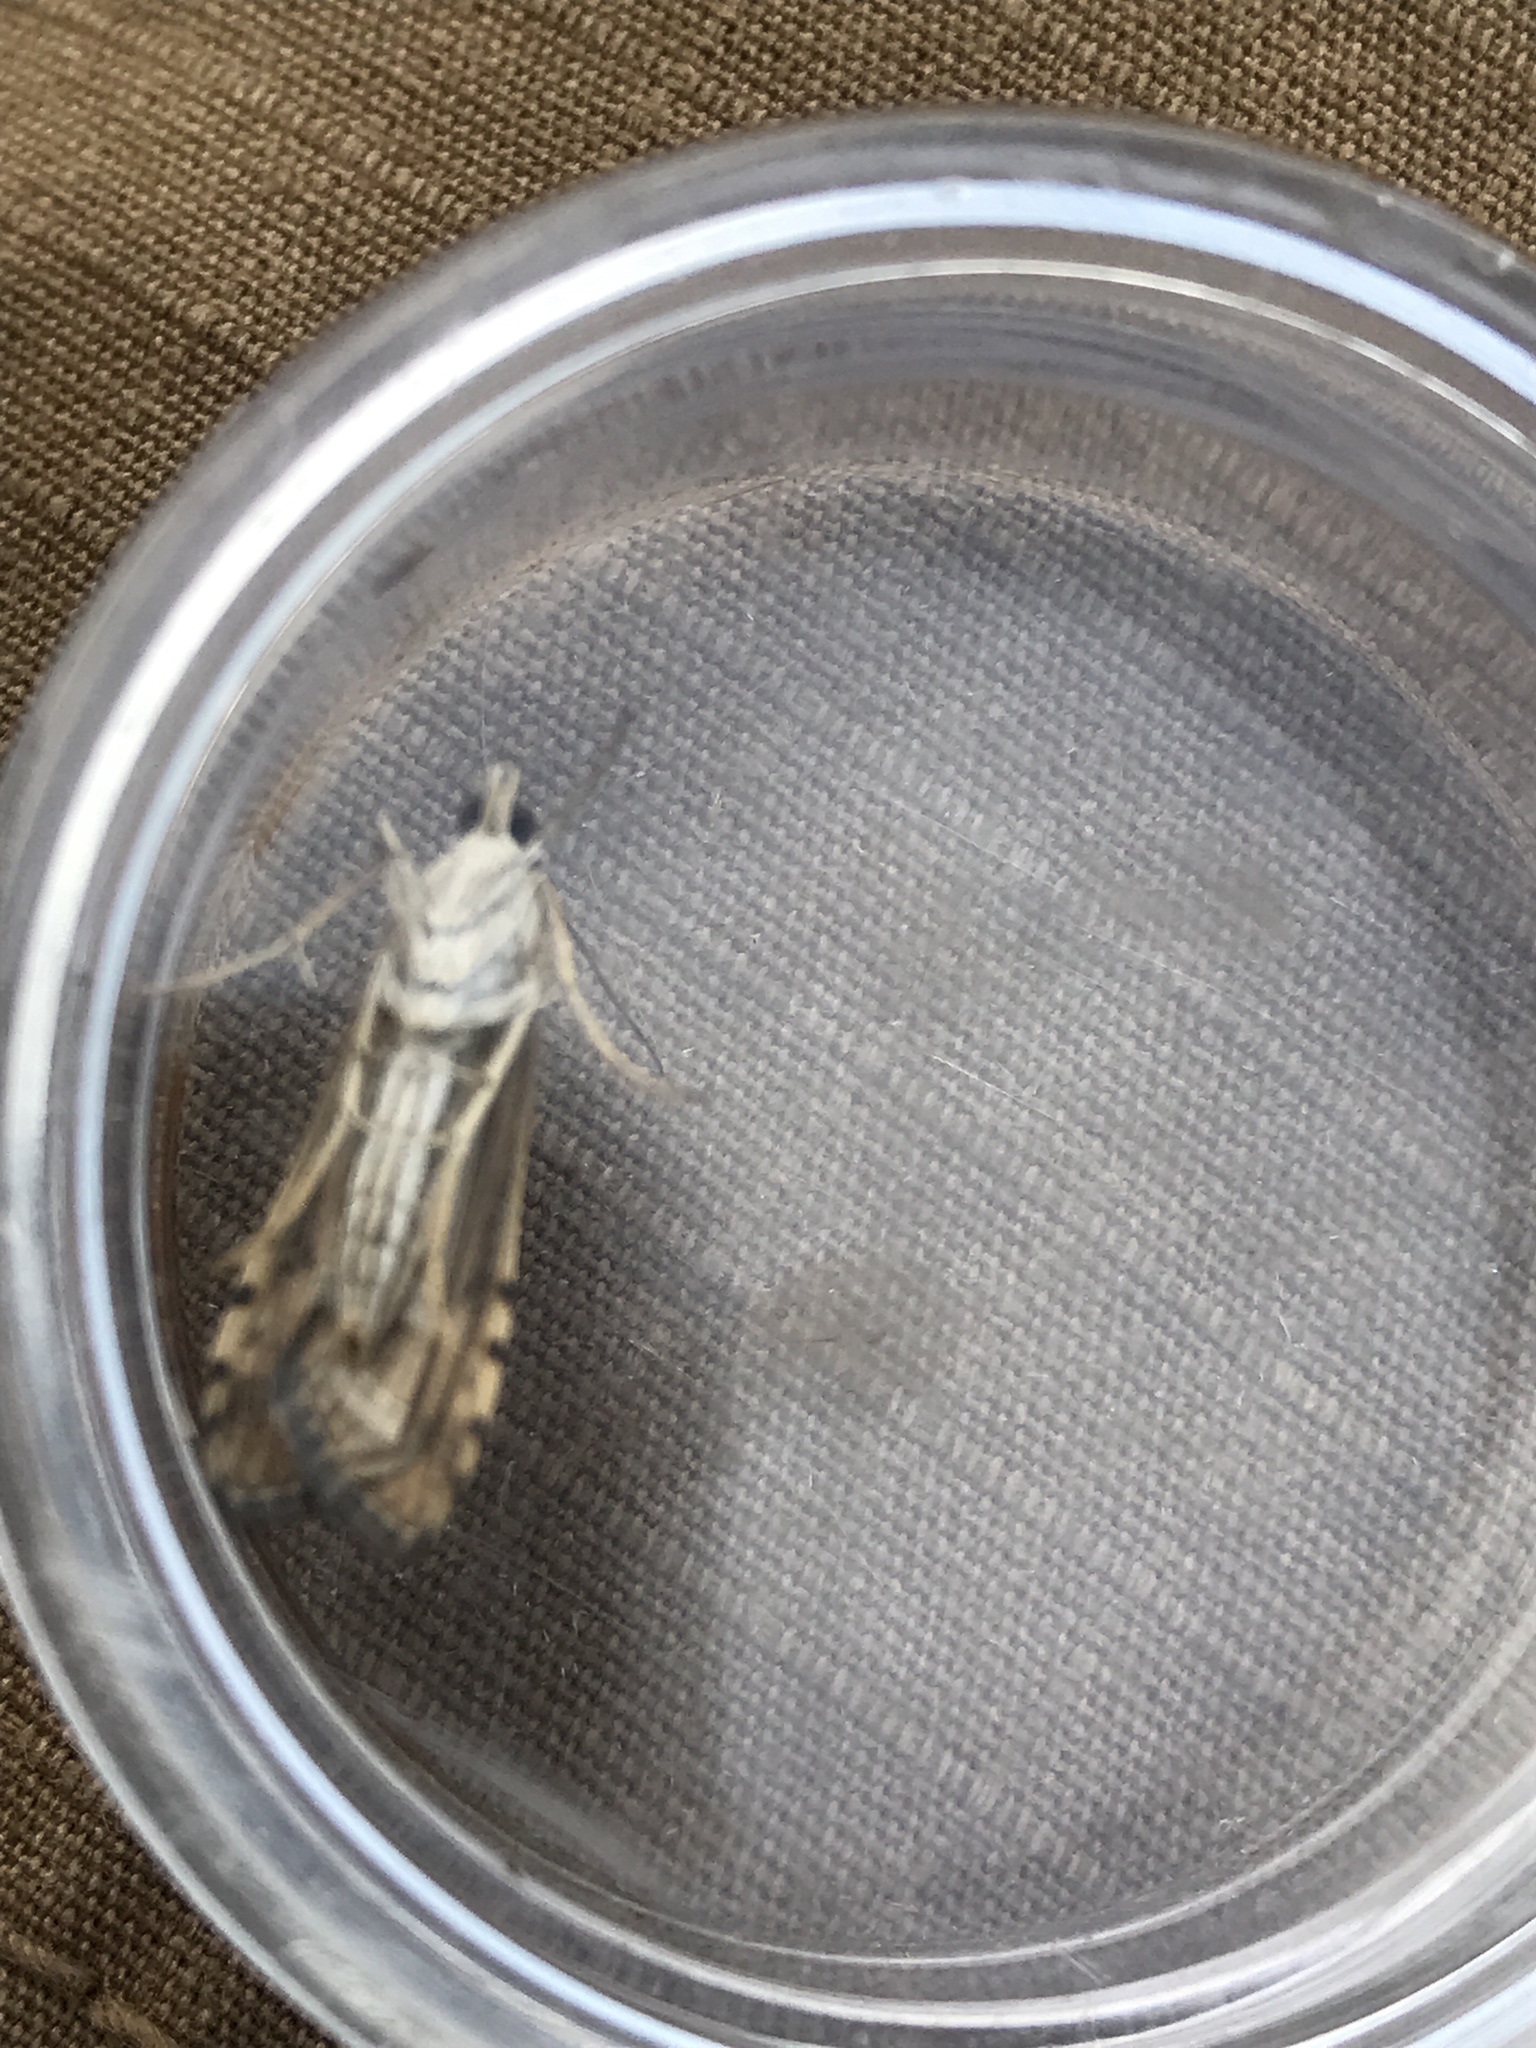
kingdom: Animalia
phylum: Arthropoda
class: Insecta
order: Lepidoptera
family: Crambidae
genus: Nomophila
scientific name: Nomophila nearctica
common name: American rush veneer
